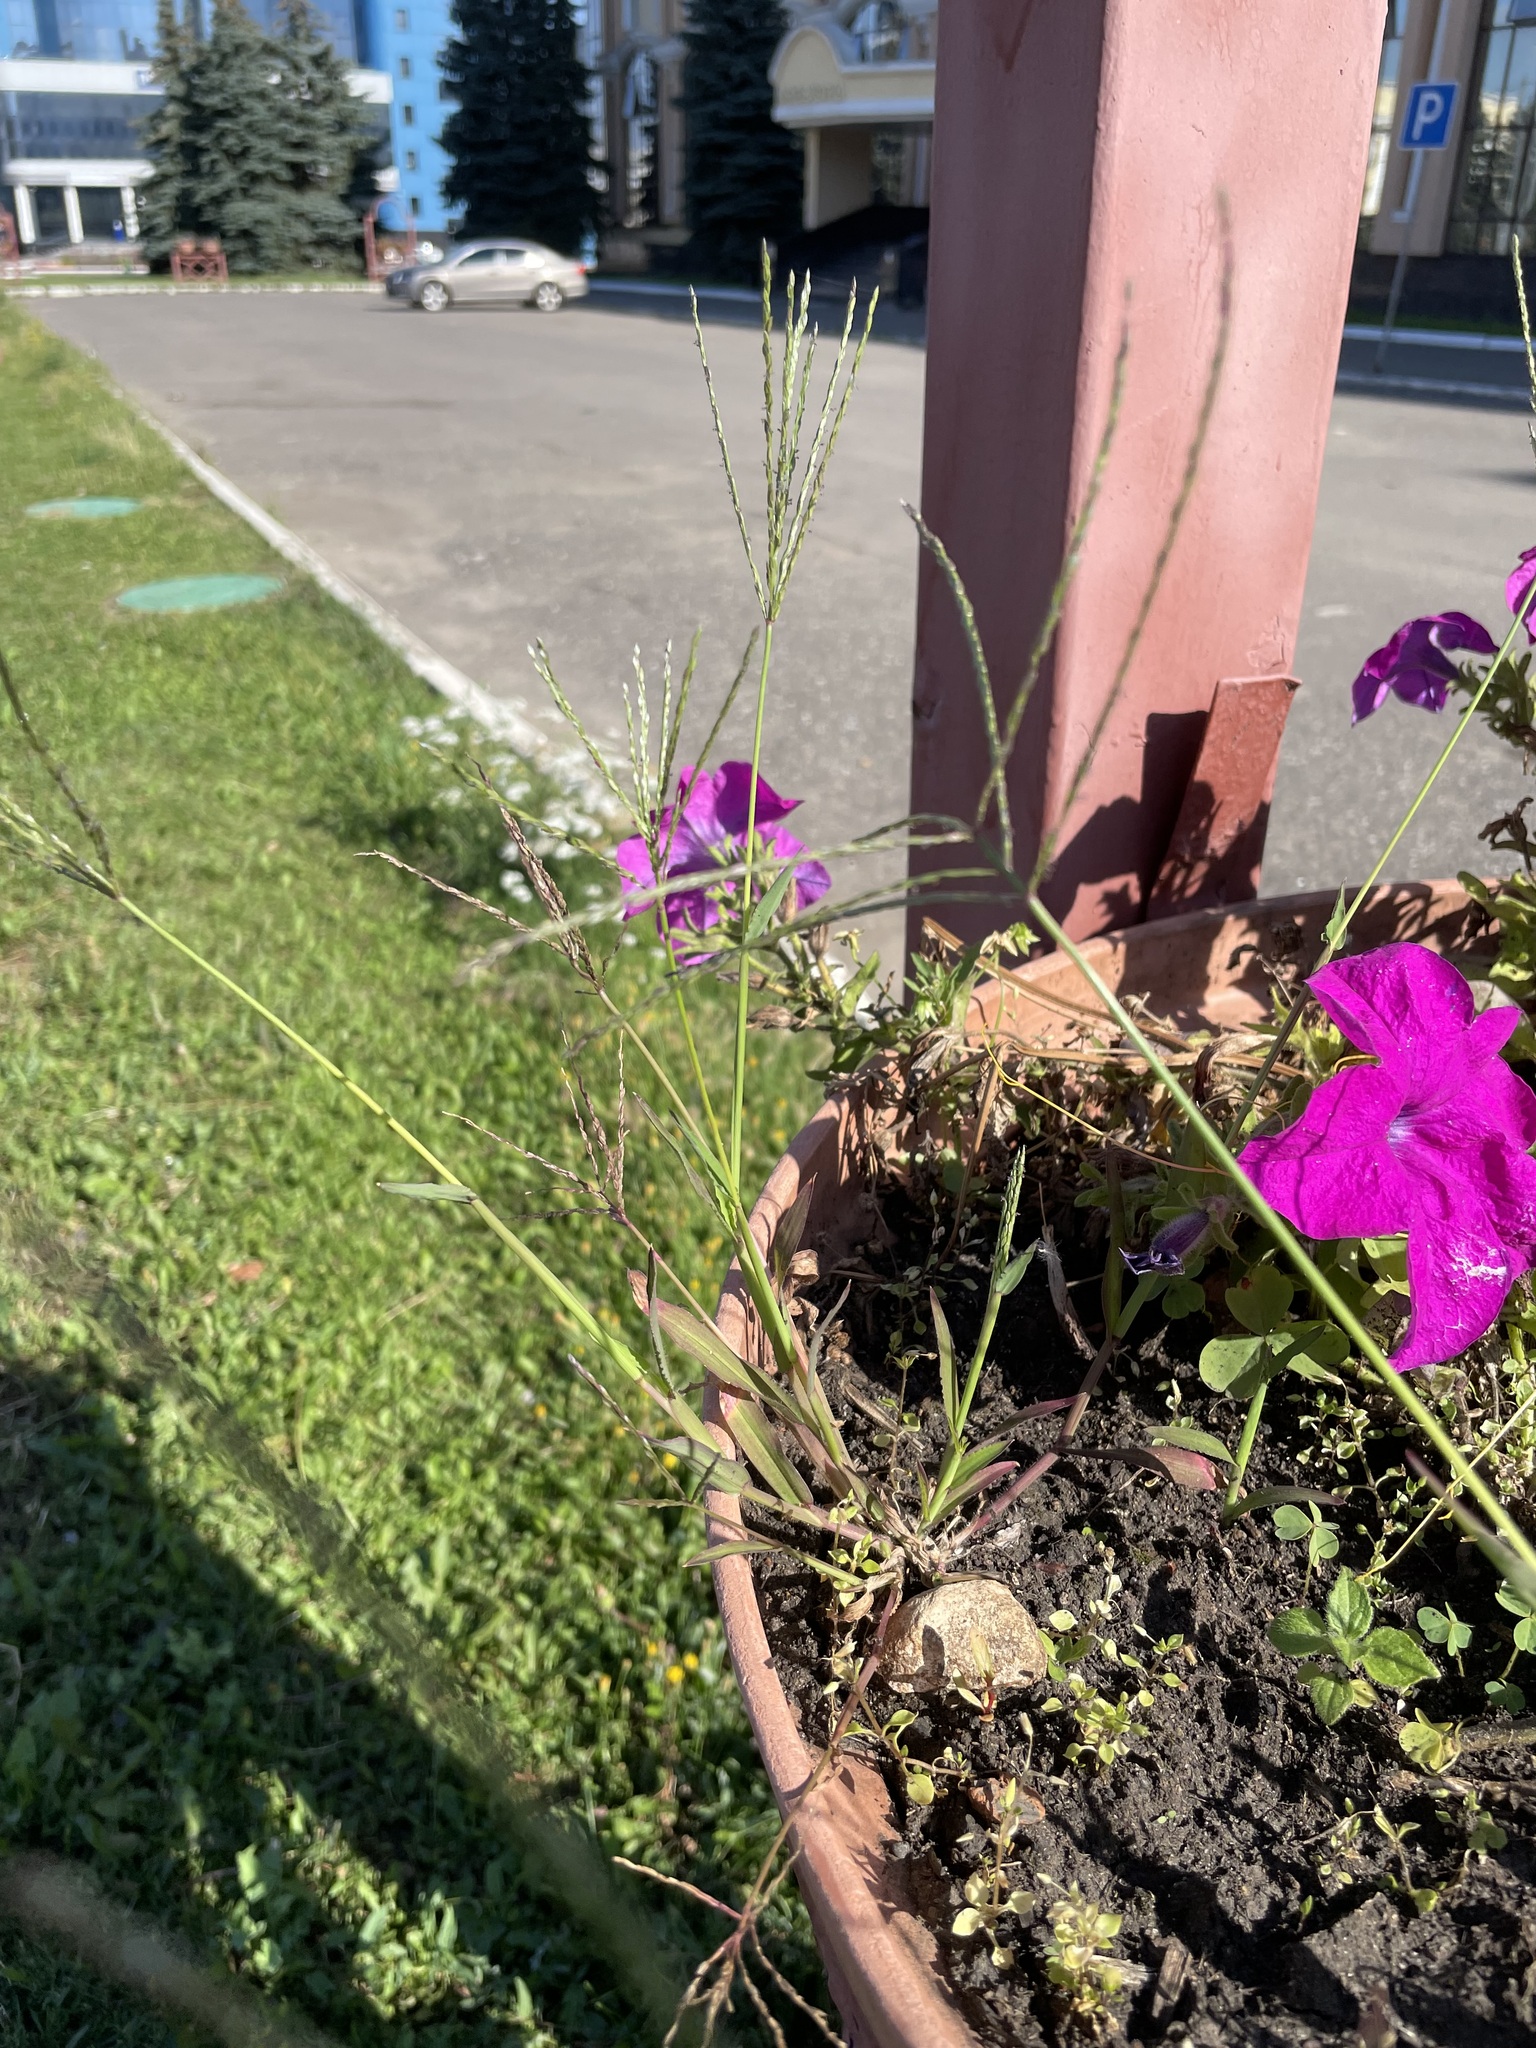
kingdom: Plantae
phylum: Tracheophyta
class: Liliopsida
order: Poales
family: Poaceae
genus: Digitaria
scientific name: Digitaria sanguinalis
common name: Hairy crabgrass
